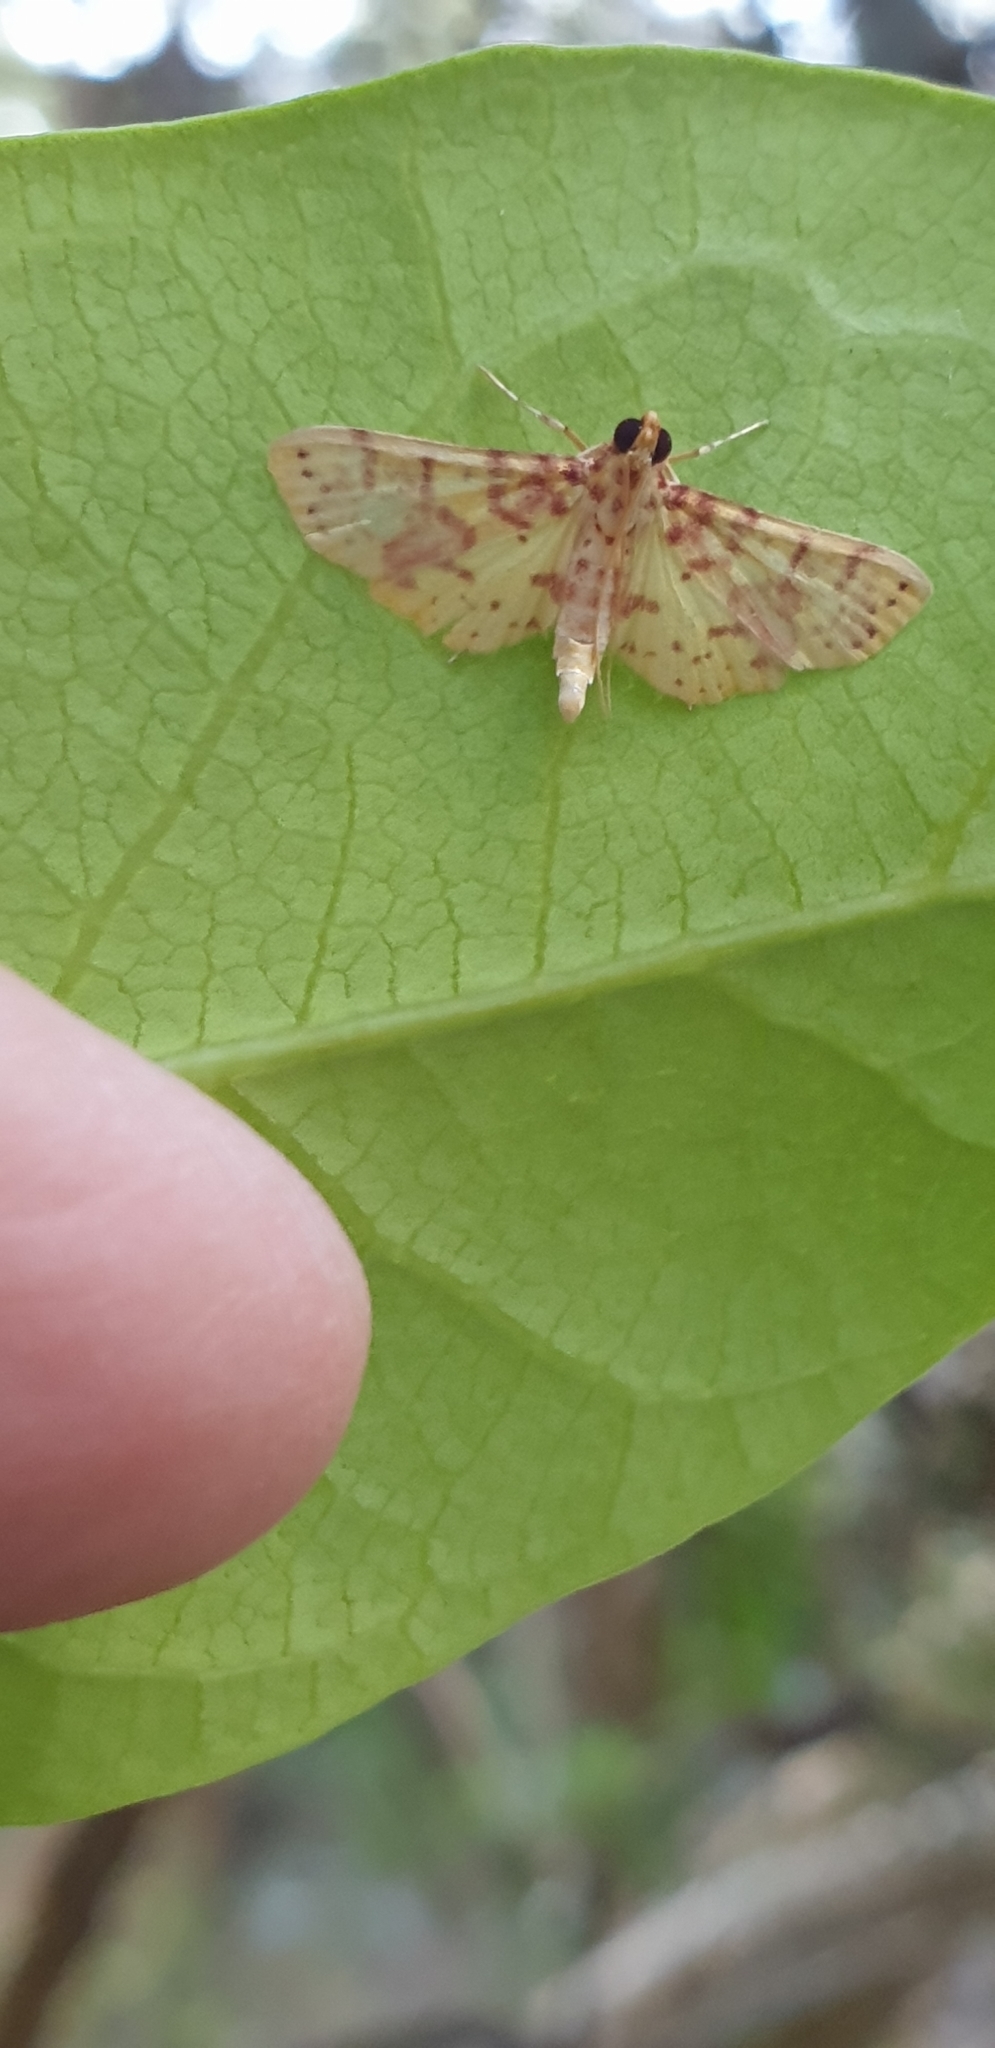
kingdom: Animalia
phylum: Arthropoda
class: Insecta
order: Lepidoptera
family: Crambidae
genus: Conogethes
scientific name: Conogethes haemactalis
